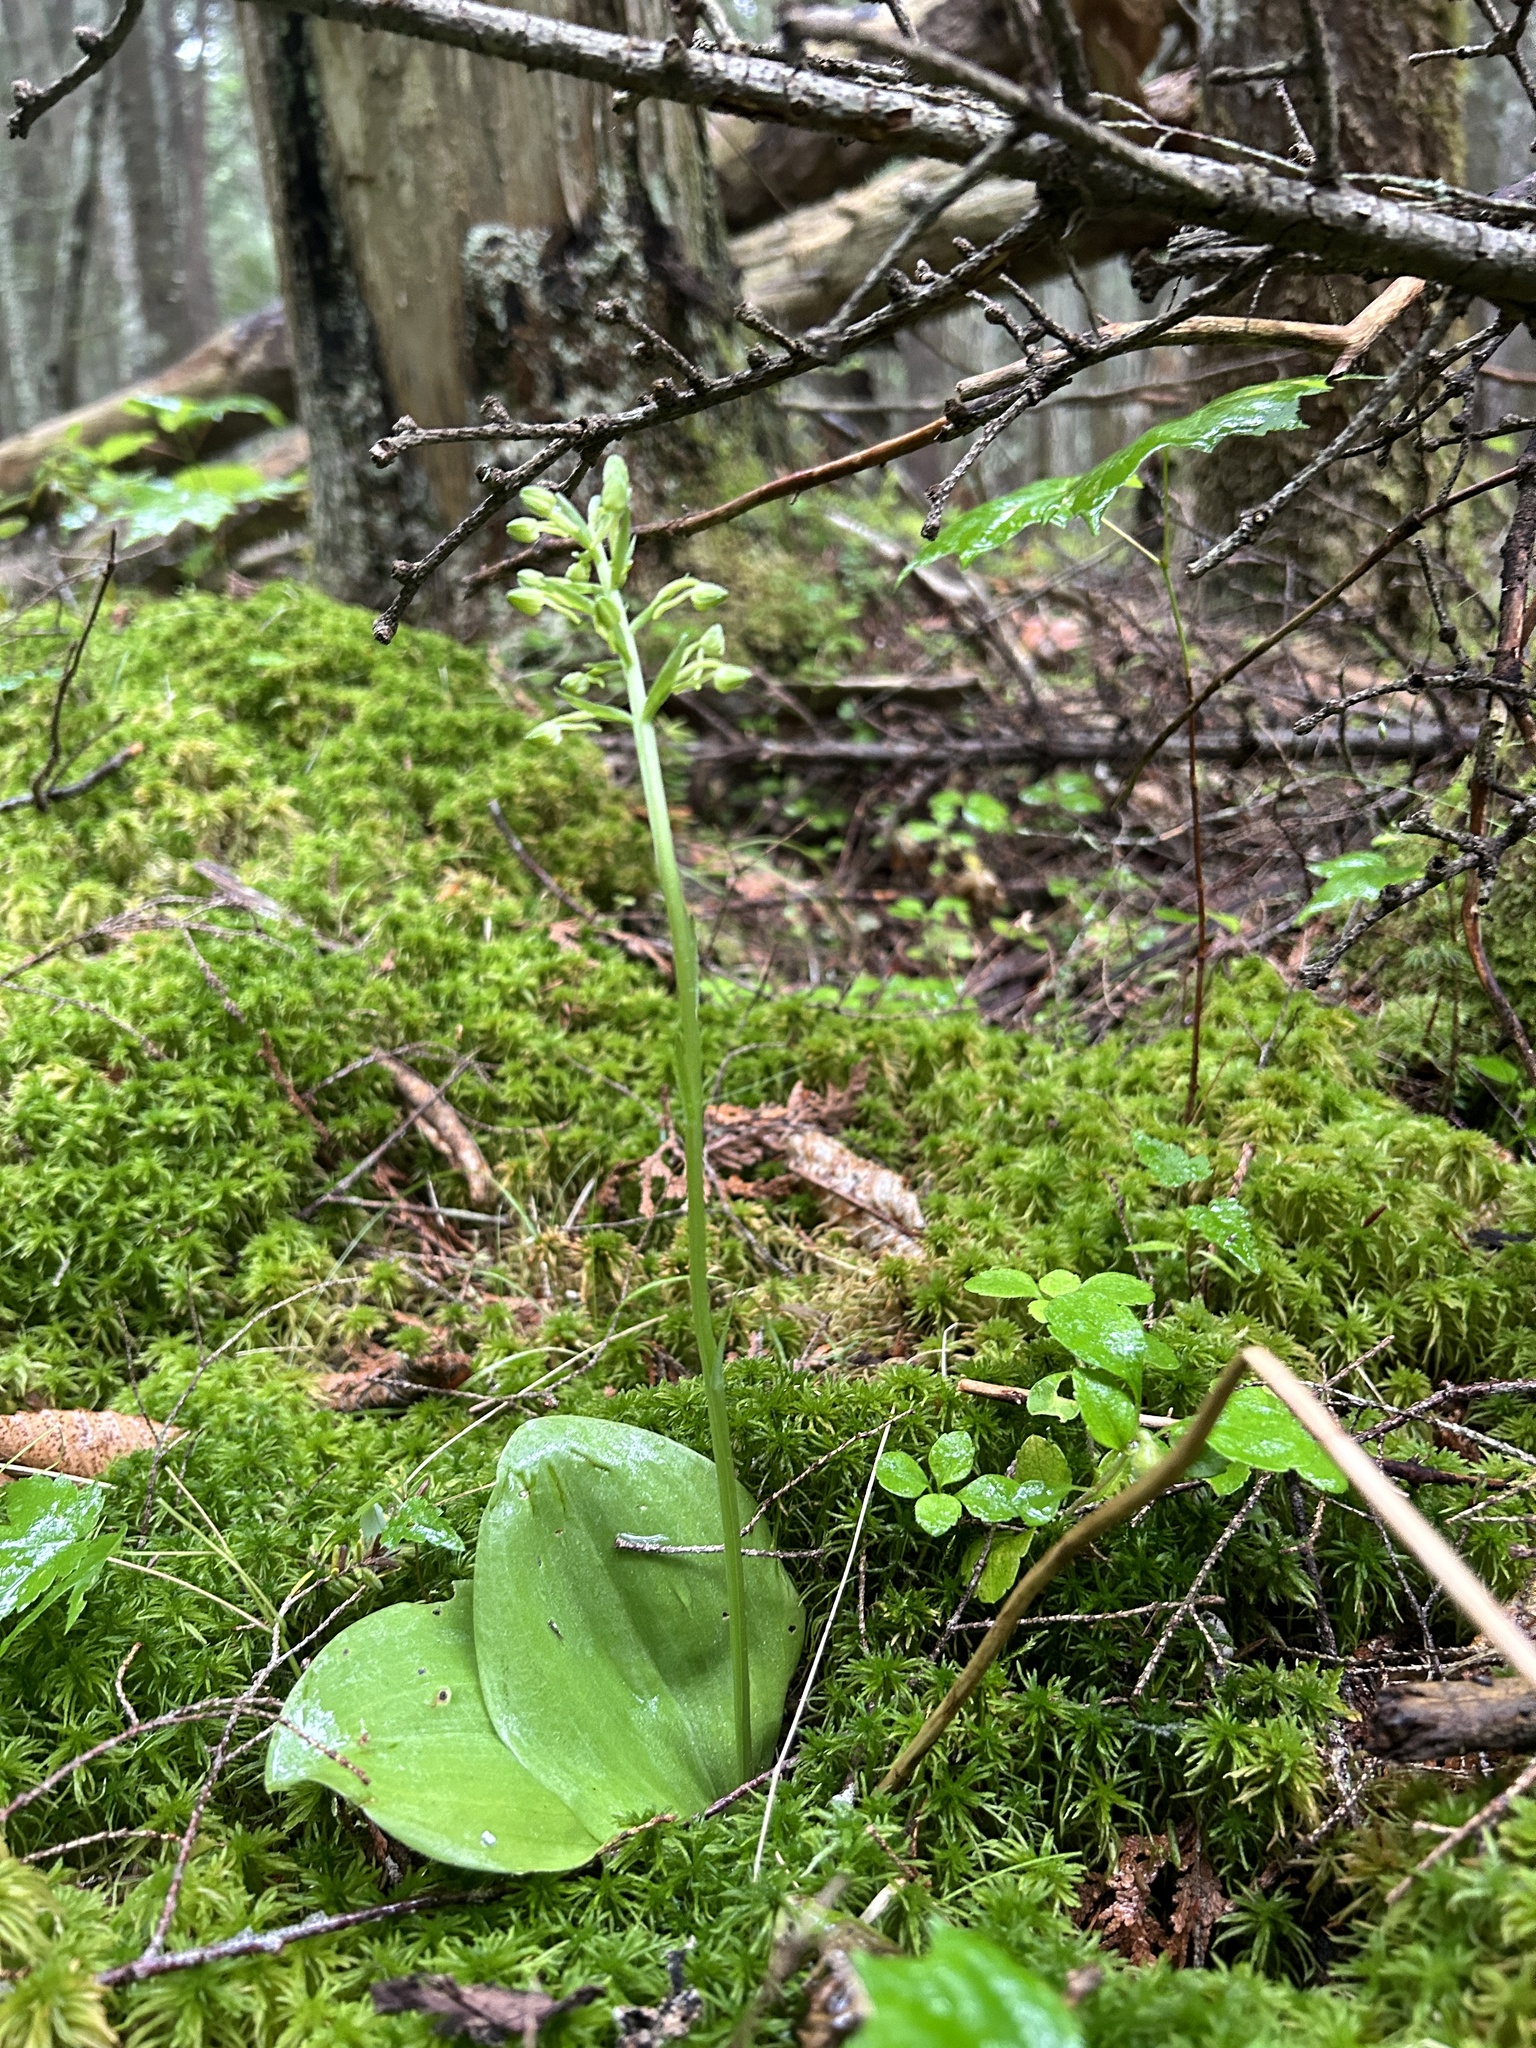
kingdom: Plantae
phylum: Tracheophyta
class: Liliopsida
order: Asparagales
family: Orchidaceae
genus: Platanthera
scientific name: Platanthera orbiculata
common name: Large round-leaved orchid
